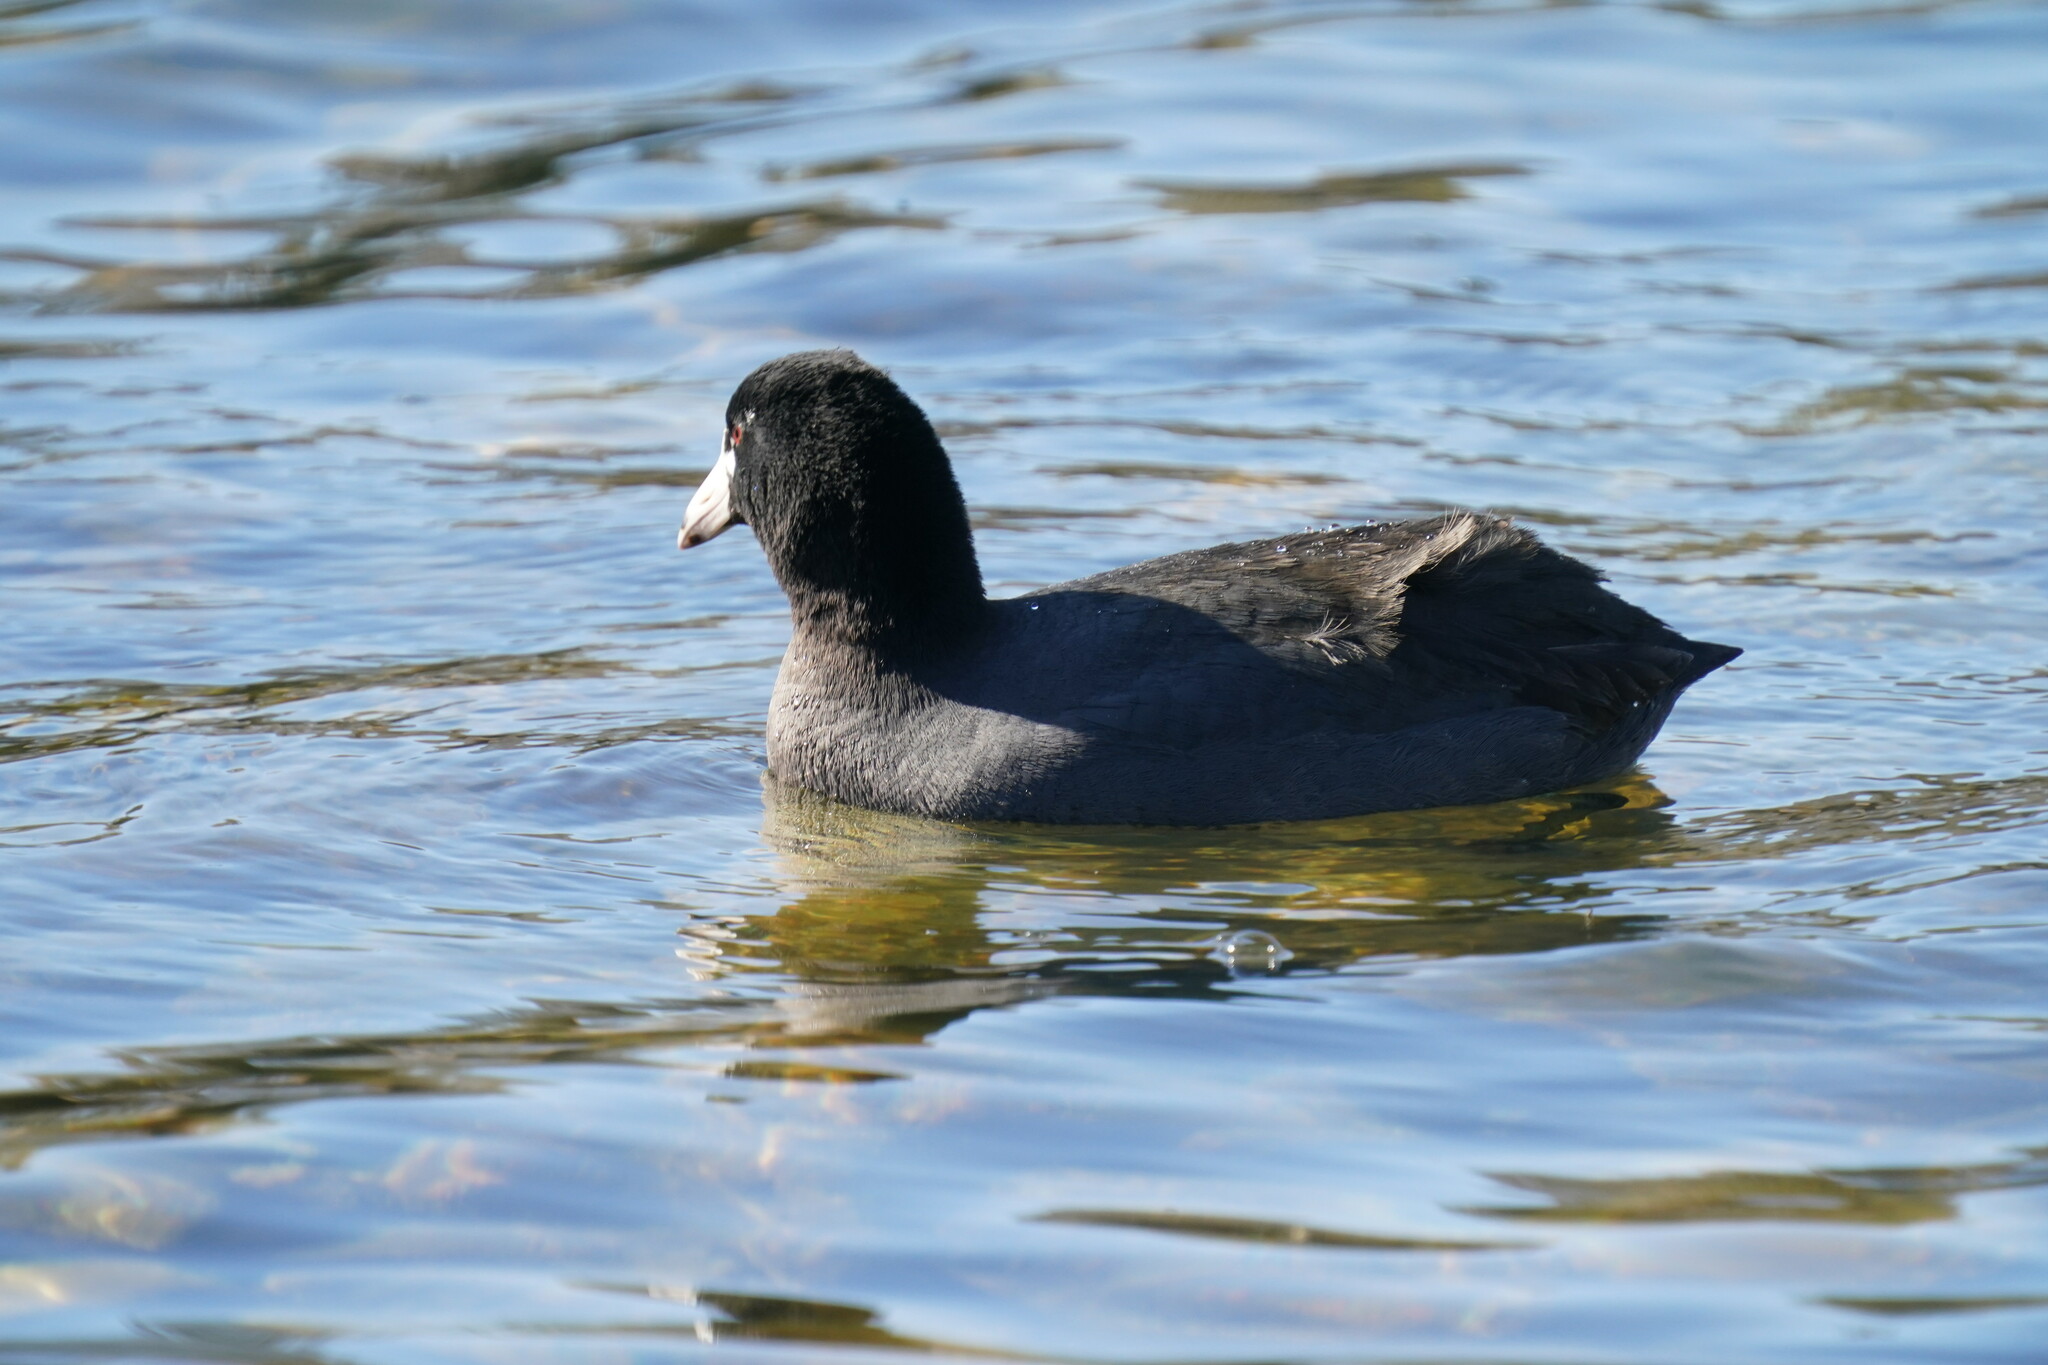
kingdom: Animalia
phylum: Chordata
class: Aves
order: Gruiformes
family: Rallidae
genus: Fulica
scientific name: Fulica americana
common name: American coot
